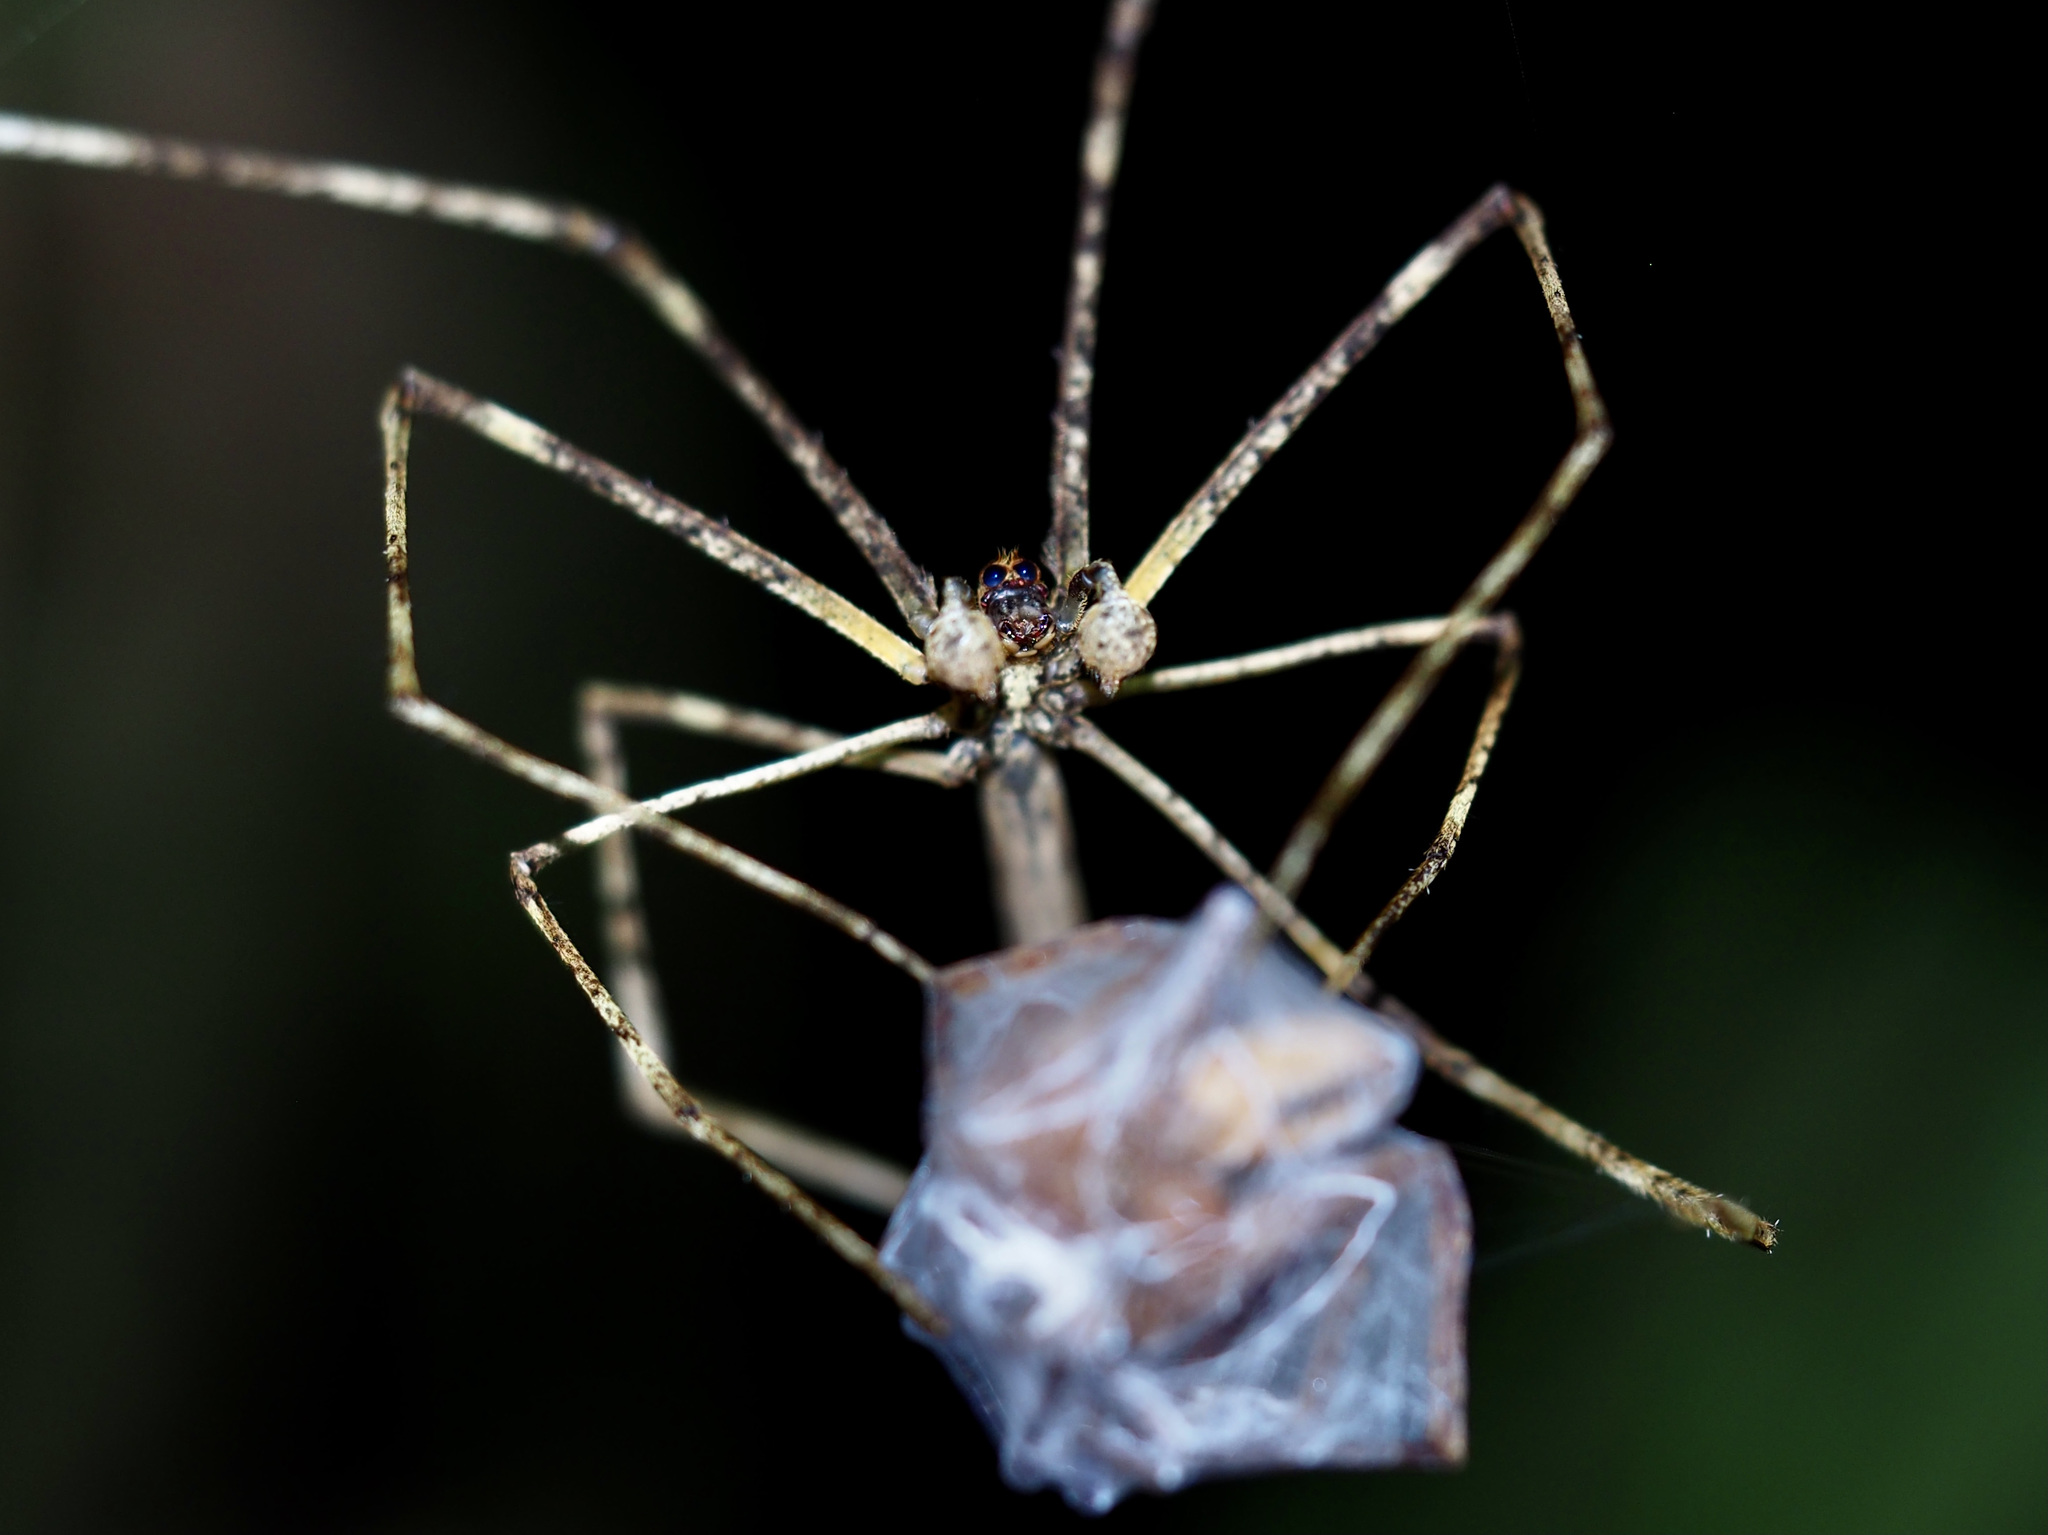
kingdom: Animalia
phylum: Arthropoda
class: Arachnida
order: Araneae
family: Deinopidae
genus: Deinopis
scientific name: Deinopis longipes
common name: Ogre faced spiders
